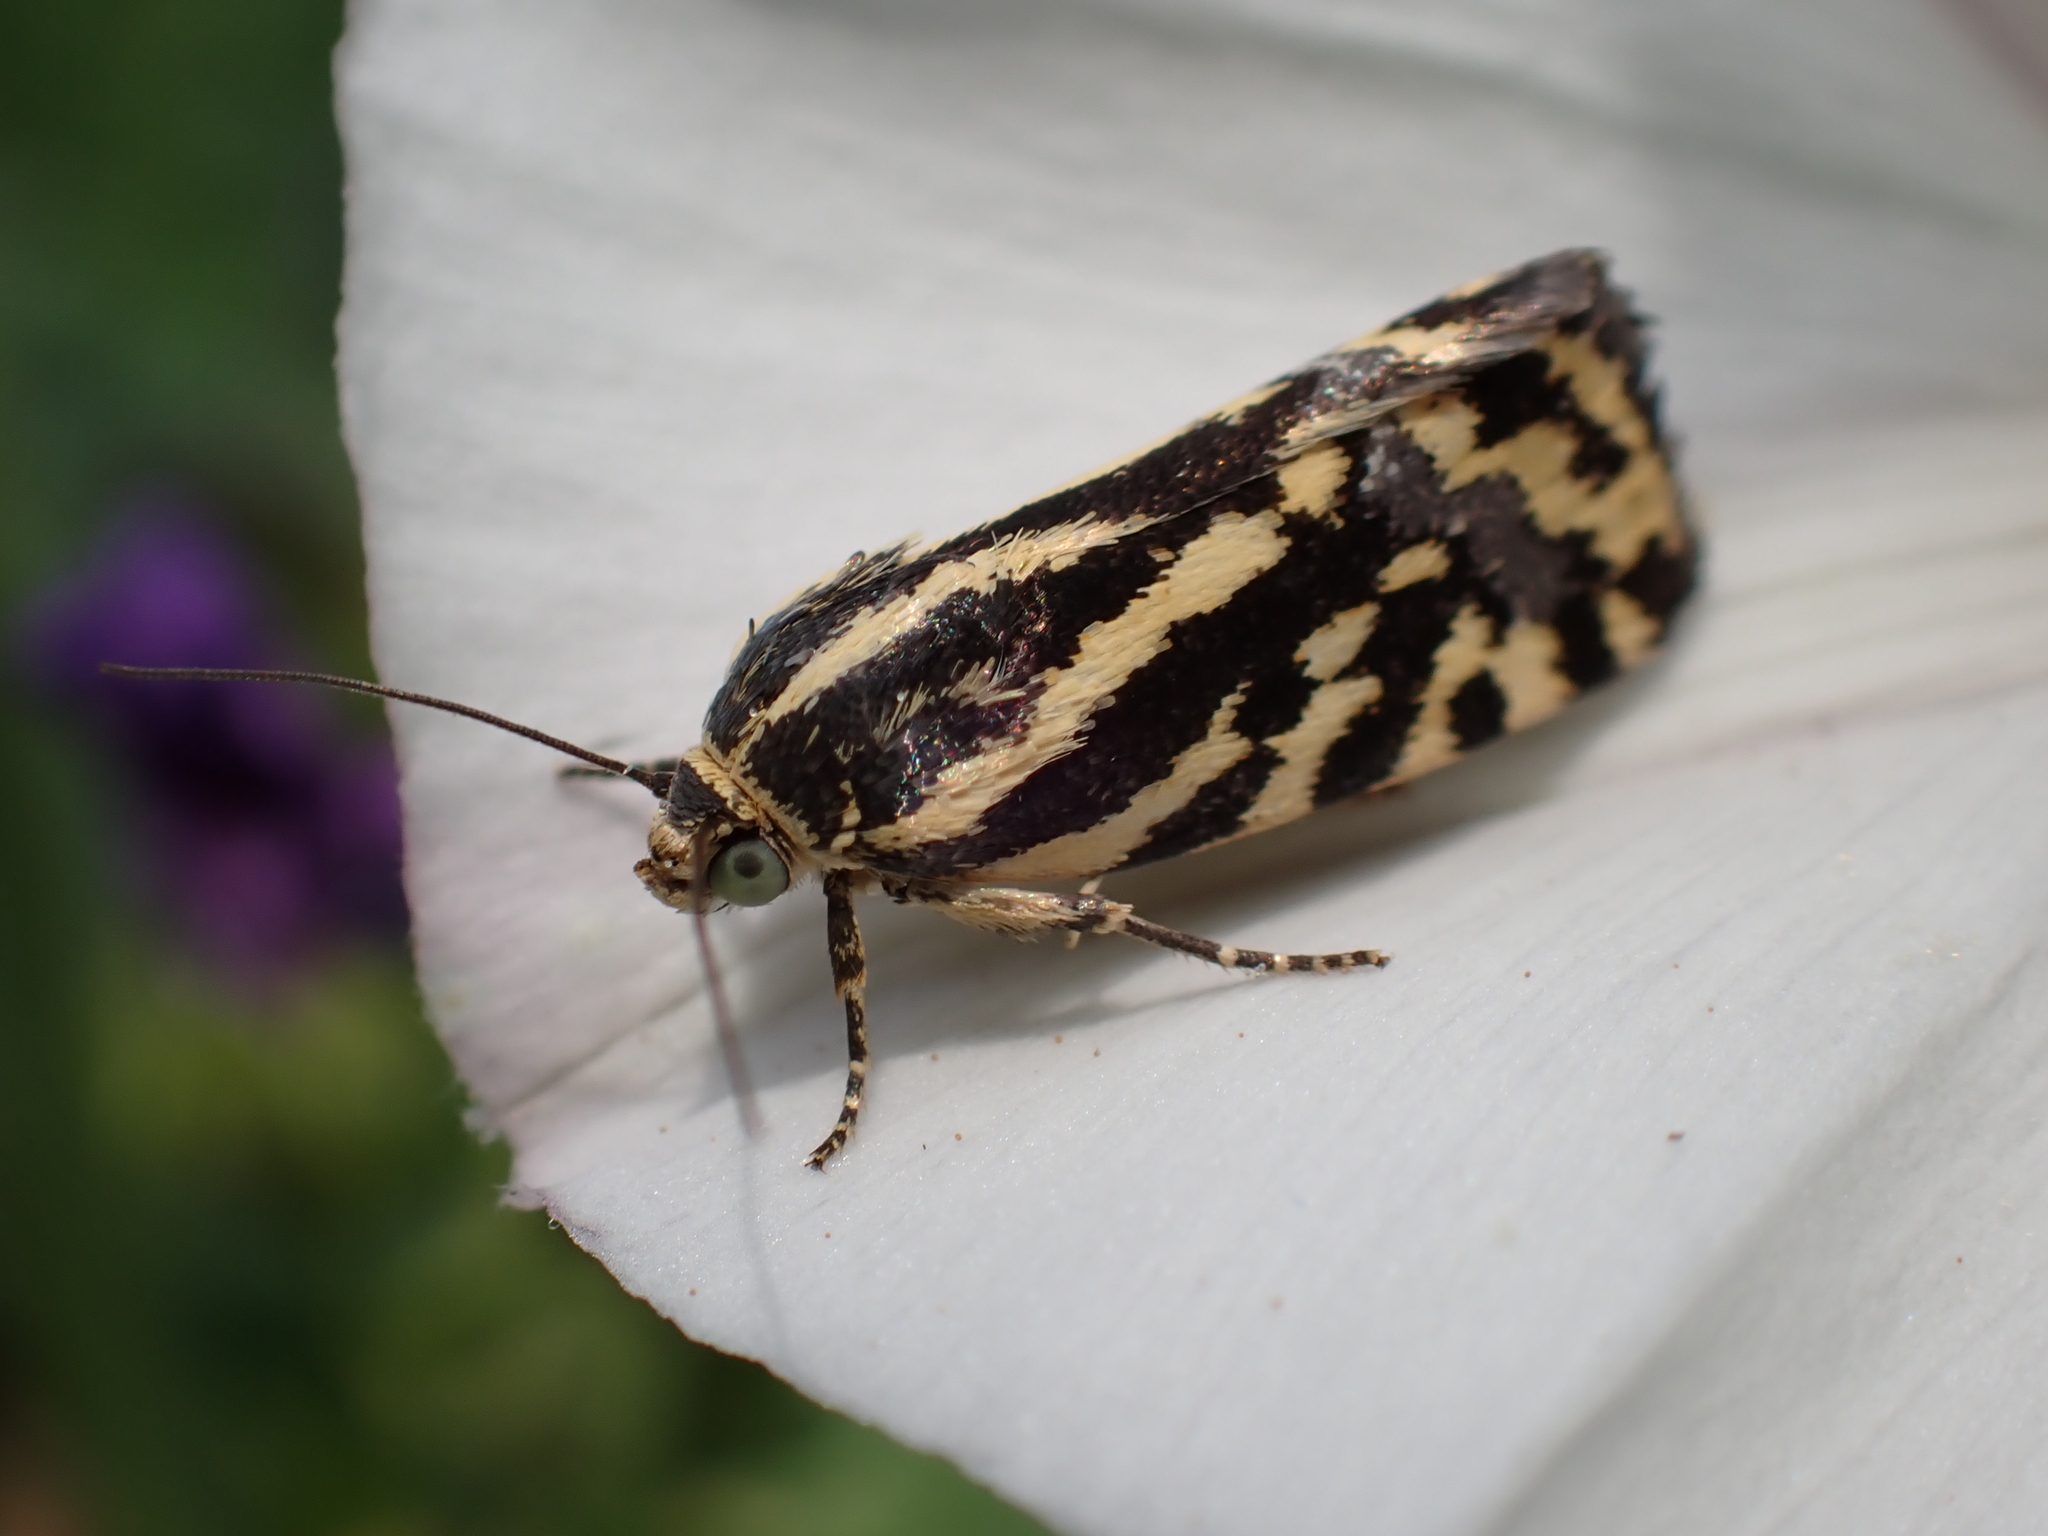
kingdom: Animalia
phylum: Arthropoda
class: Insecta
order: Lepidoptera
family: Noctuidae
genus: Acontia
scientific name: Acontia trabealis
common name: Spotted sulphur
